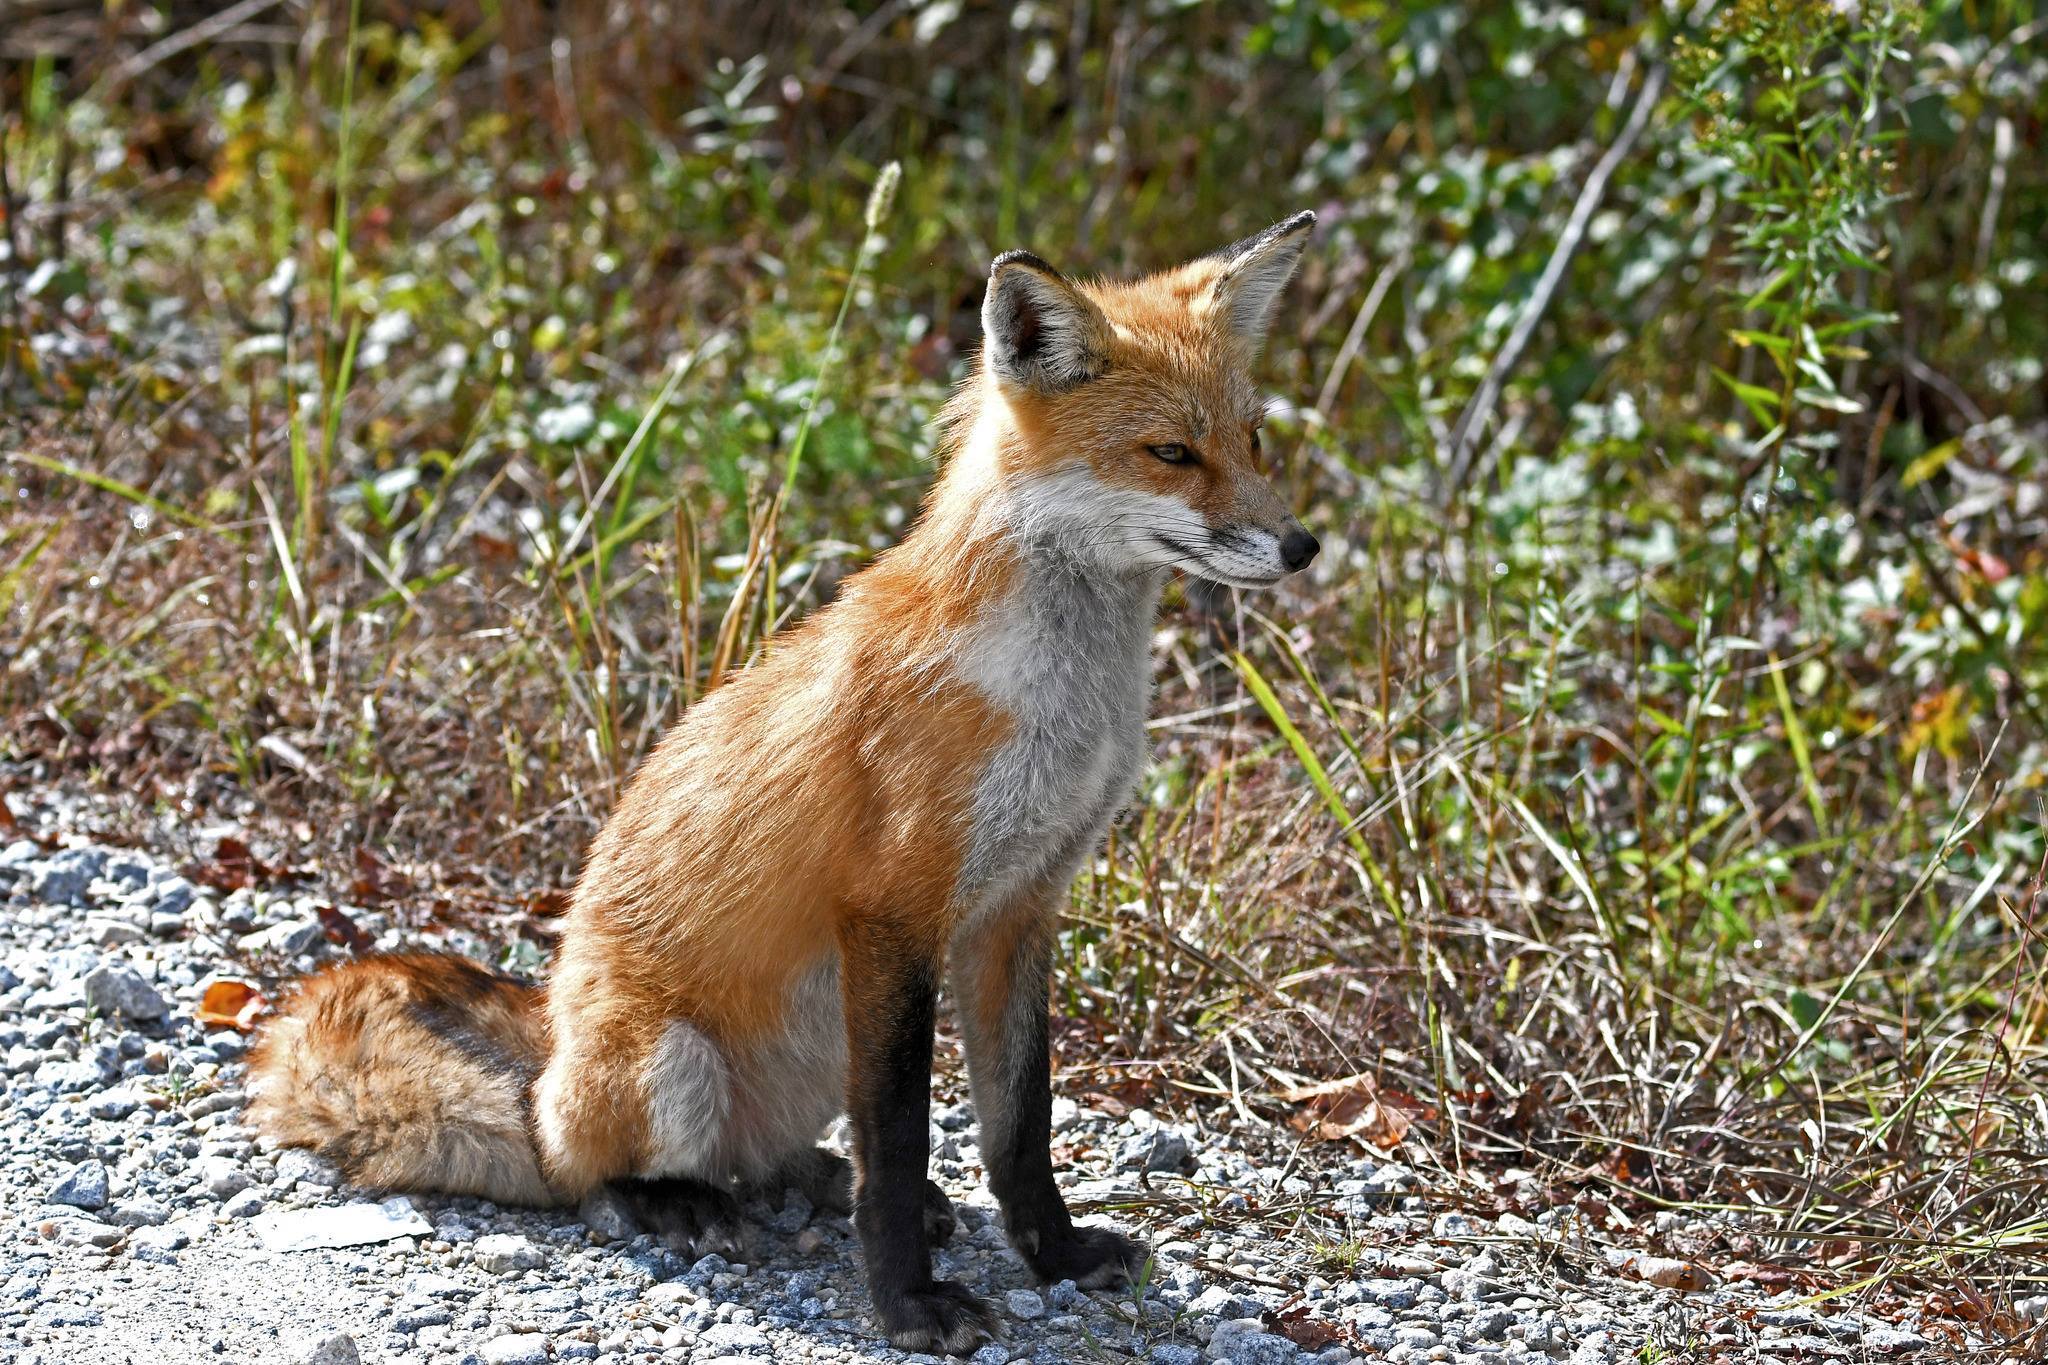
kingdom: Animalia
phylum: Chordata
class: Mammalia
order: Carnivora
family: Canidae
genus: Vulpes
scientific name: Vulpes vulpes
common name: Red fox
